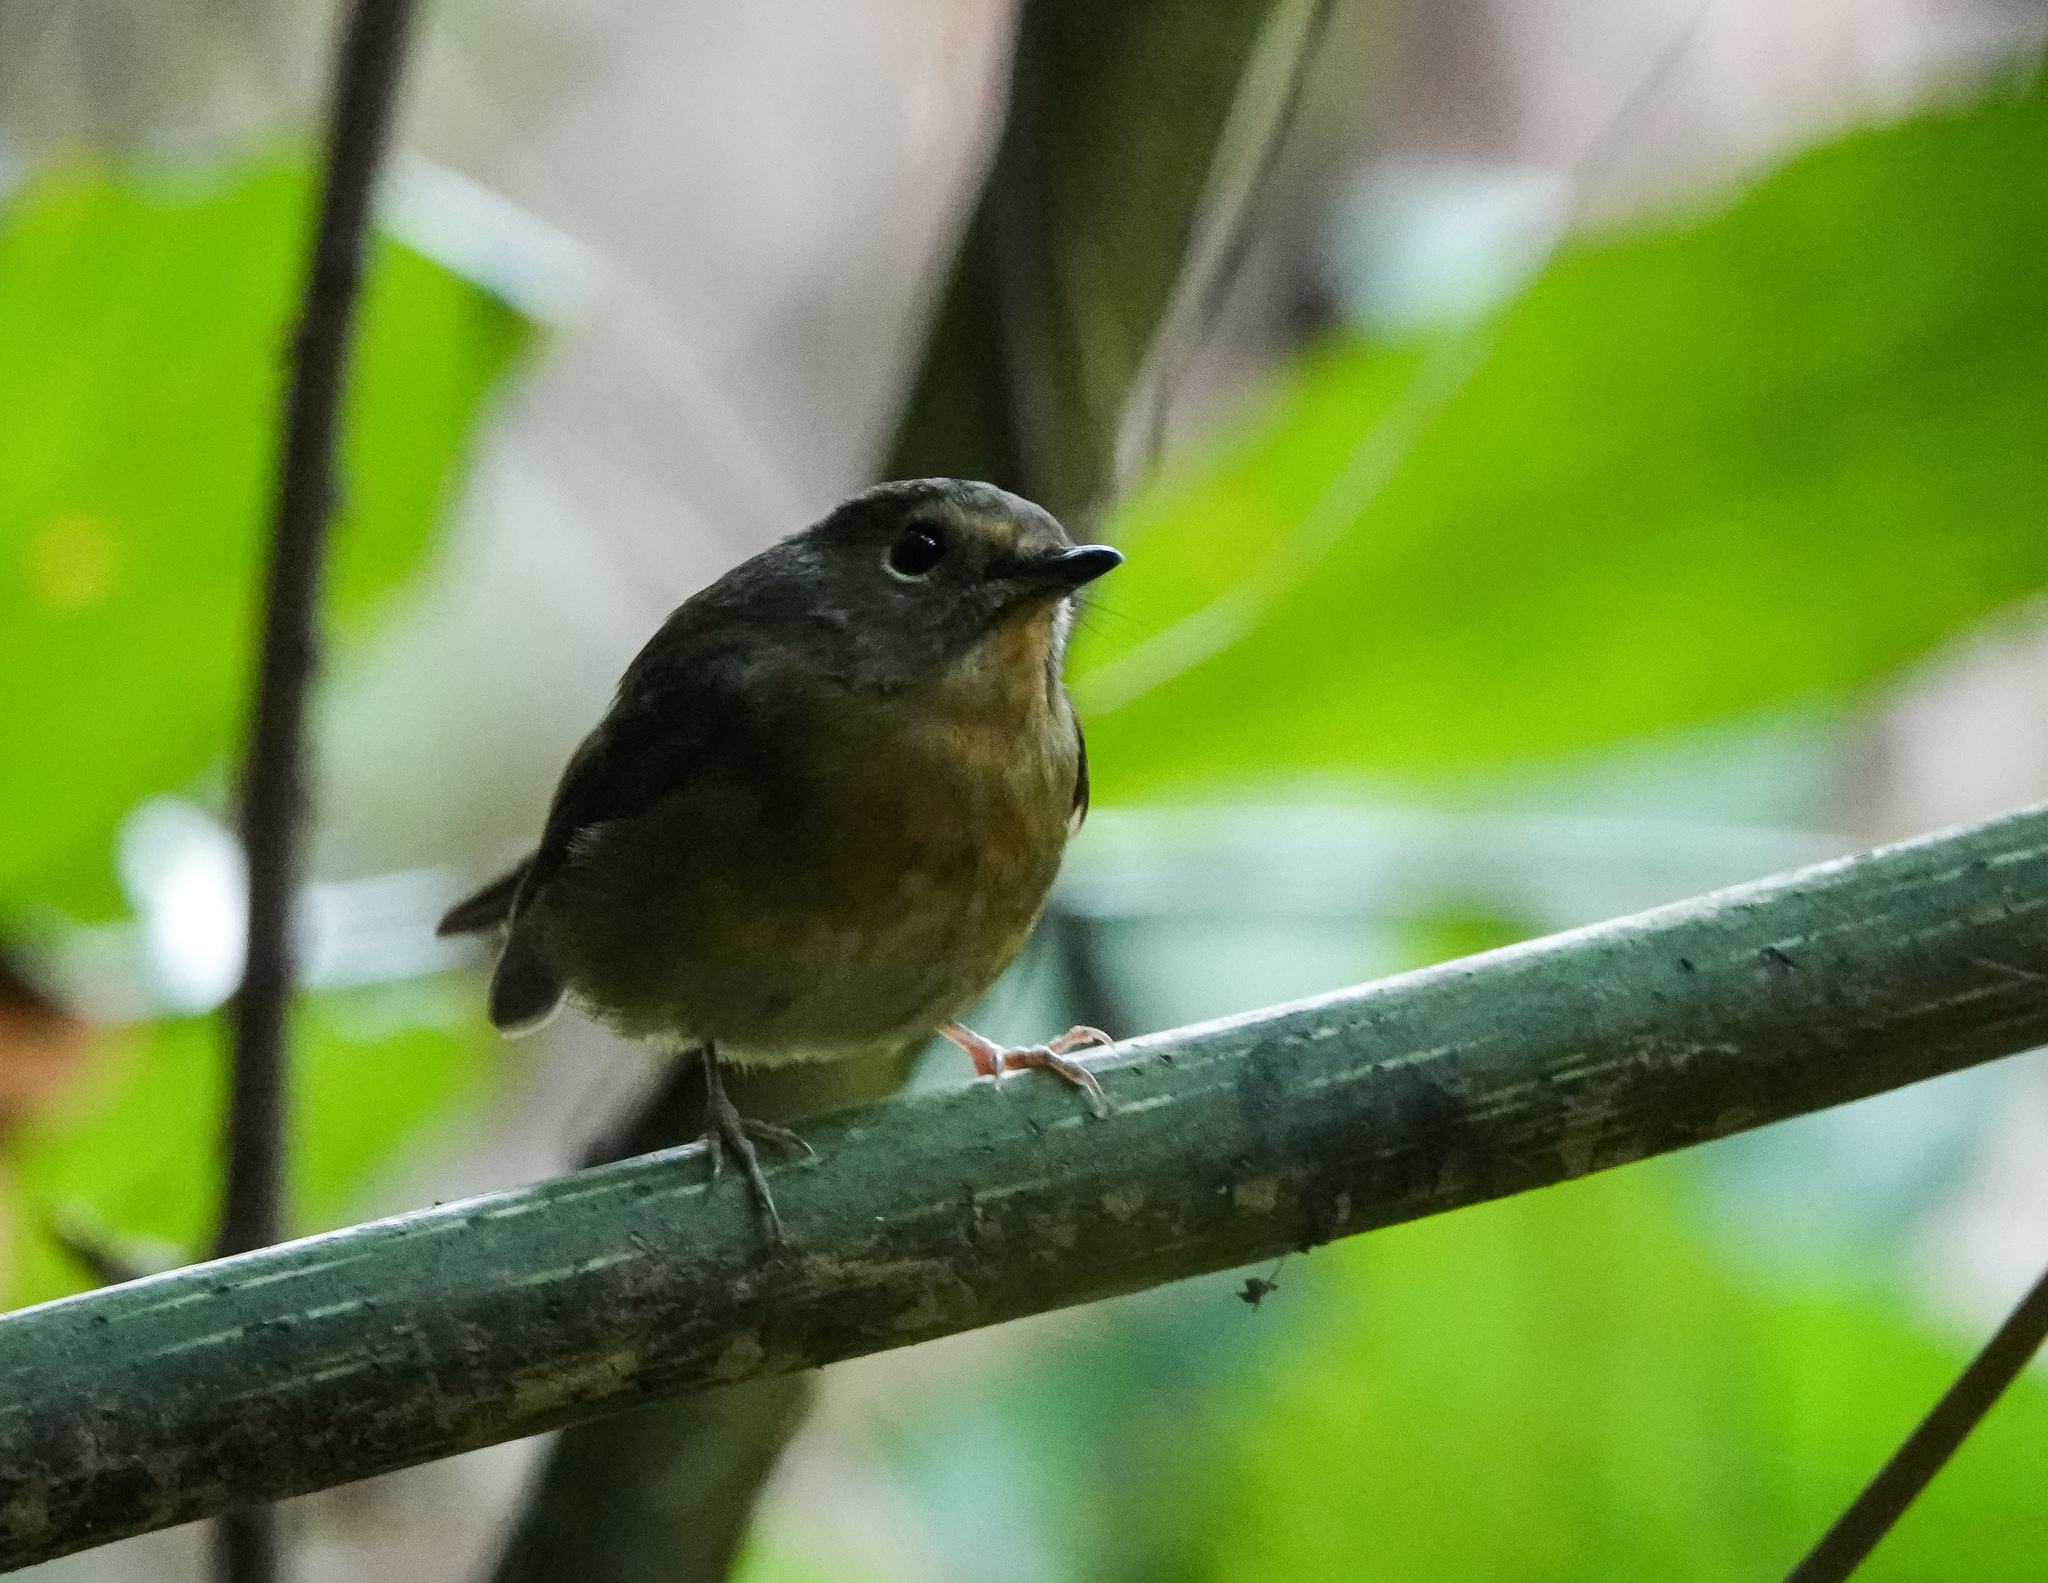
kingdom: Animalia
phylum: Chordata
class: Aves
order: Passeriformes
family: Muscicapidae
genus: Ficedula
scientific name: Ficedula hyperythra
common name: Snowy-browed flycatcher
